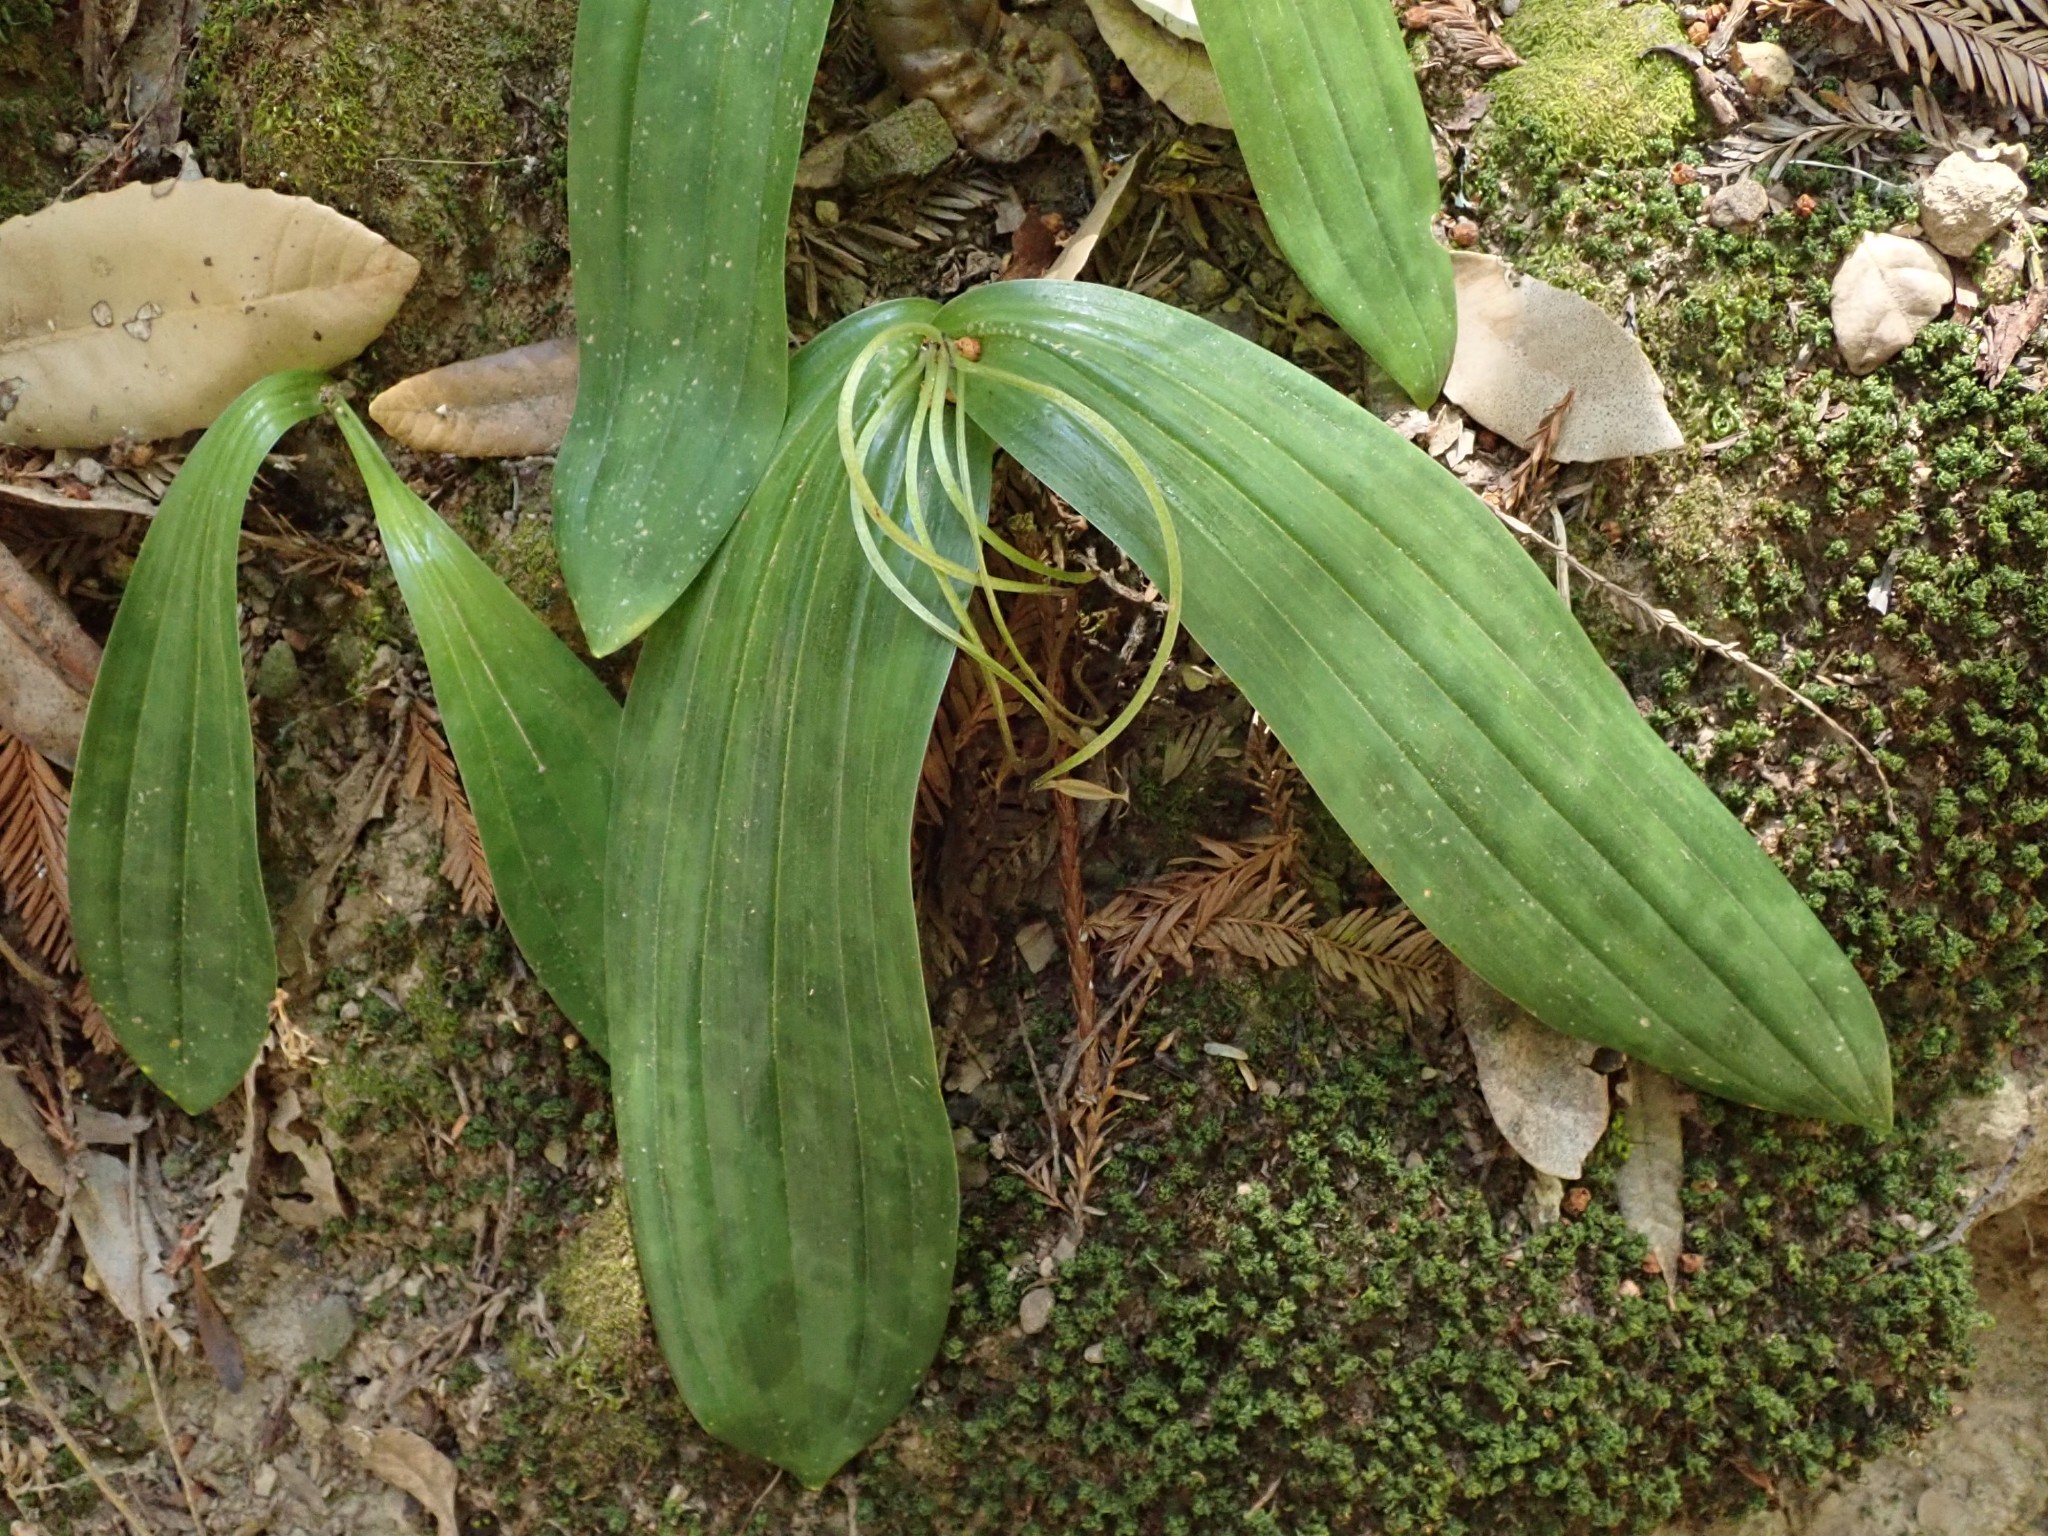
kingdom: Plantae
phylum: Tracheophyta
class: Liliopsida
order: Liliales
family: Liliaceae
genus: Scoliopus
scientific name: Scoliopus bigelovii
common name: Foetid adder's-tongue
